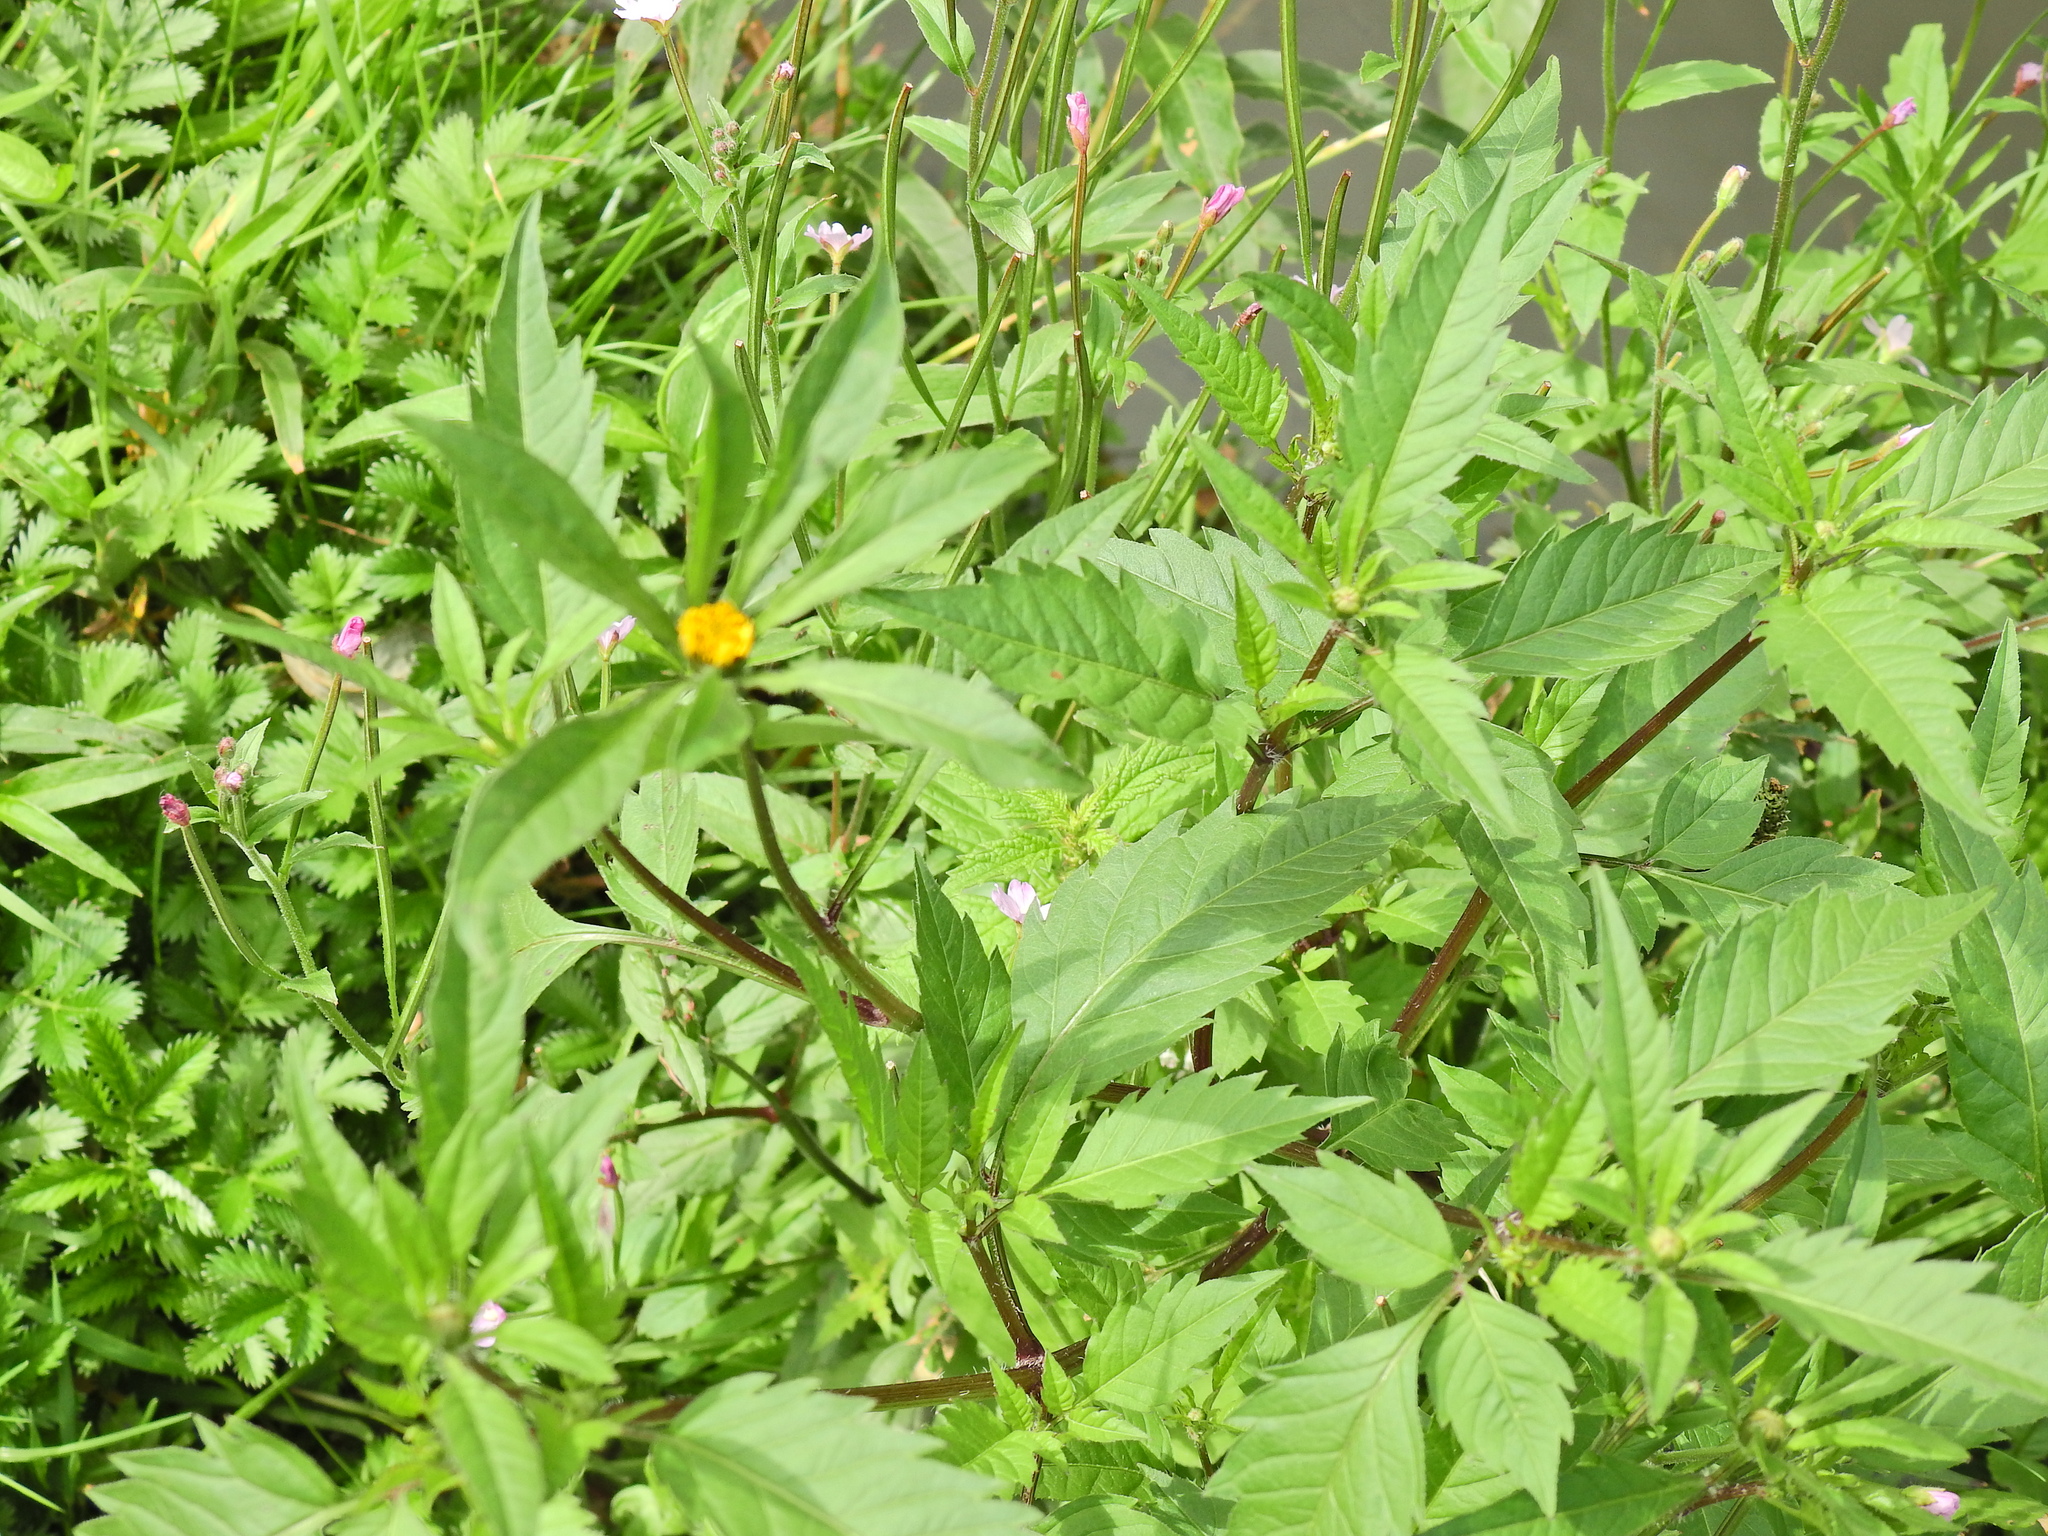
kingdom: Plantae
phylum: Tracheophyta
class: Magnoliopsida
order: Asterales
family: Asteraceae
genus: Bidens
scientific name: Bidens tripartita
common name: Trifid bur-marigold
